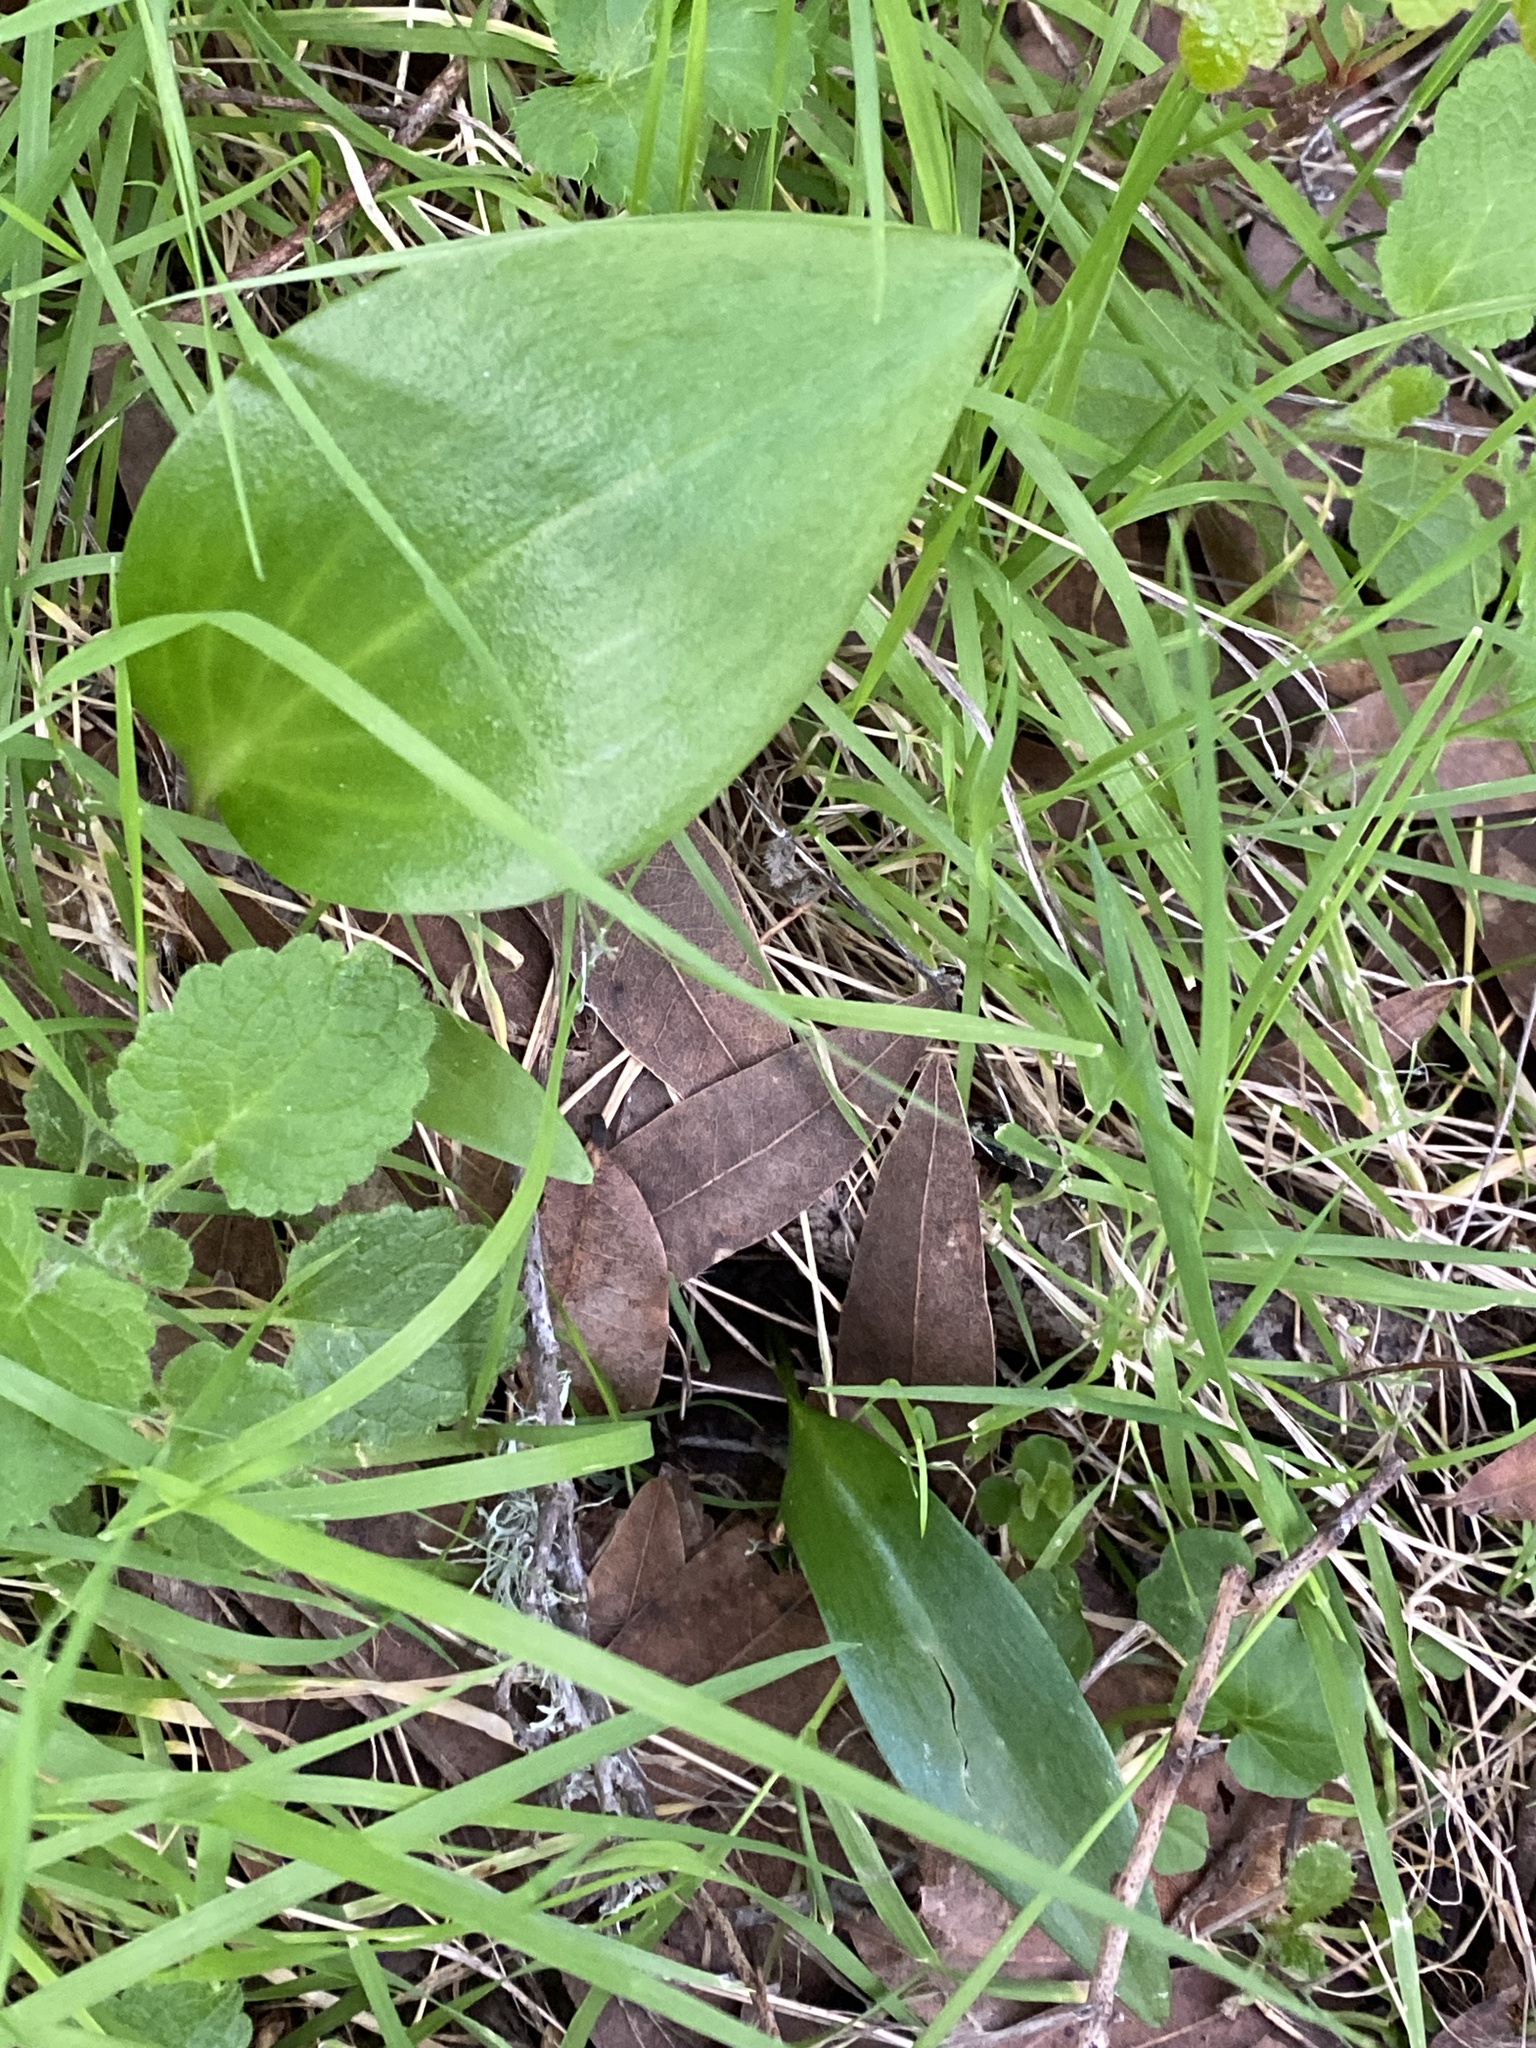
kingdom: Plantae
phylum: Tracheophyta
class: Liliopsida
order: Liliales
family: Liliaceae
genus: Fritillaria
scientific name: Fritillaria affinis
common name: Ojai fritillary
